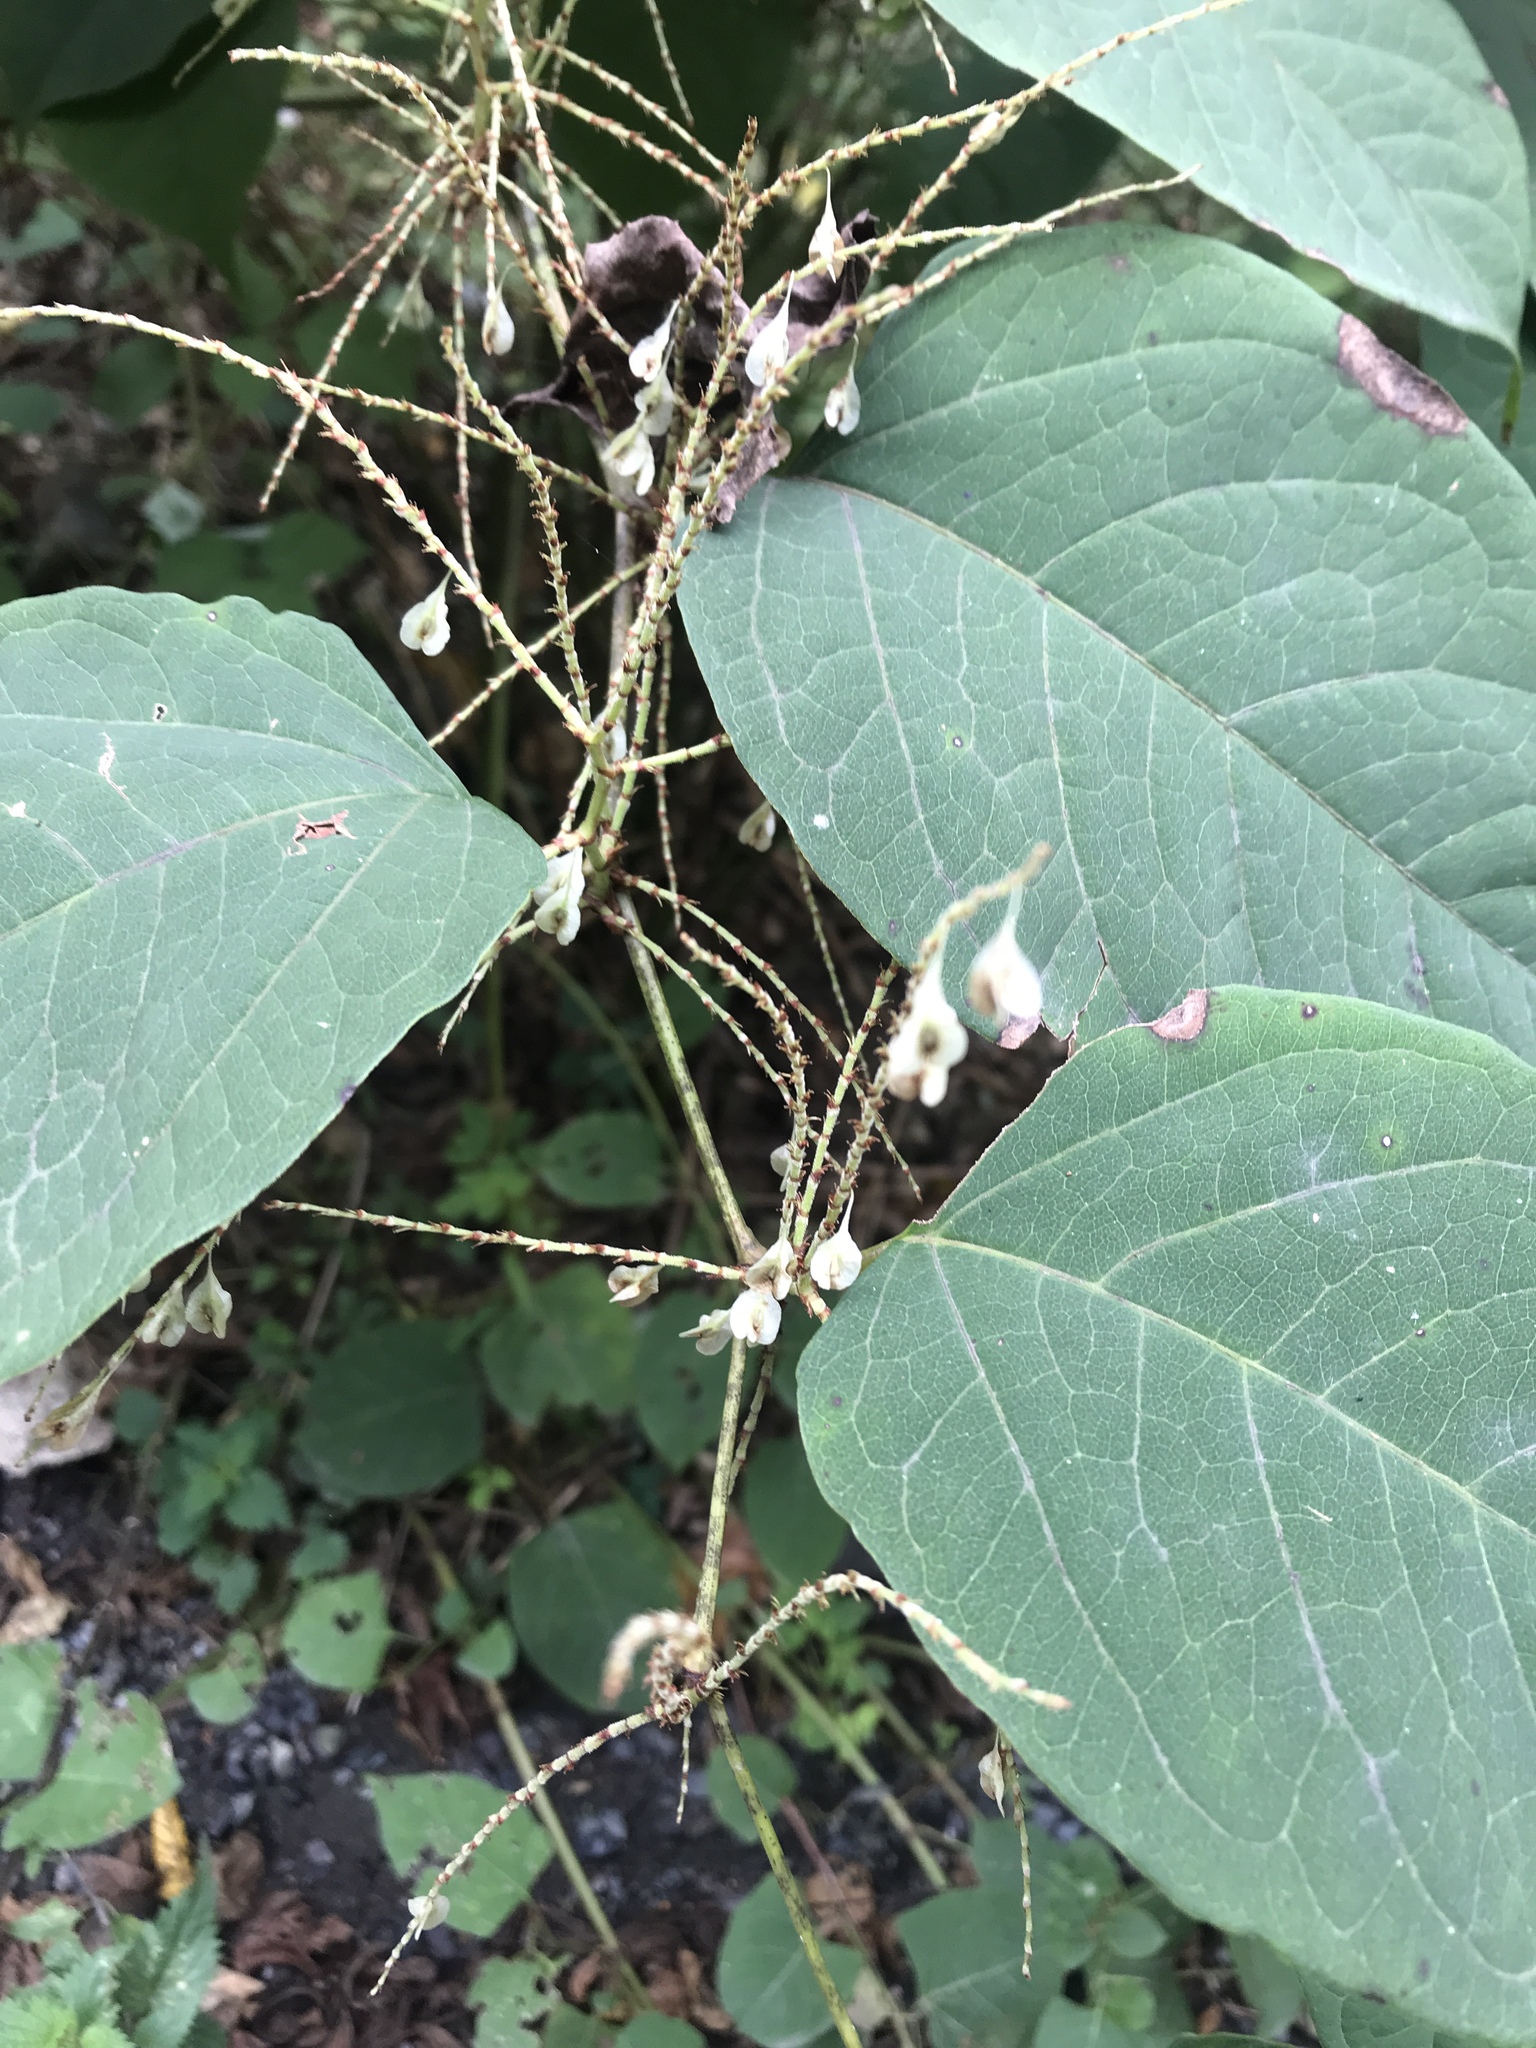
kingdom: Plantae
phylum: Tracheophyta
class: Magnoliopsida
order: Caryophyllales
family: Polygonaceae
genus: Reynoutria
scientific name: Reynoutria japonica
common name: Japanese knotweed
